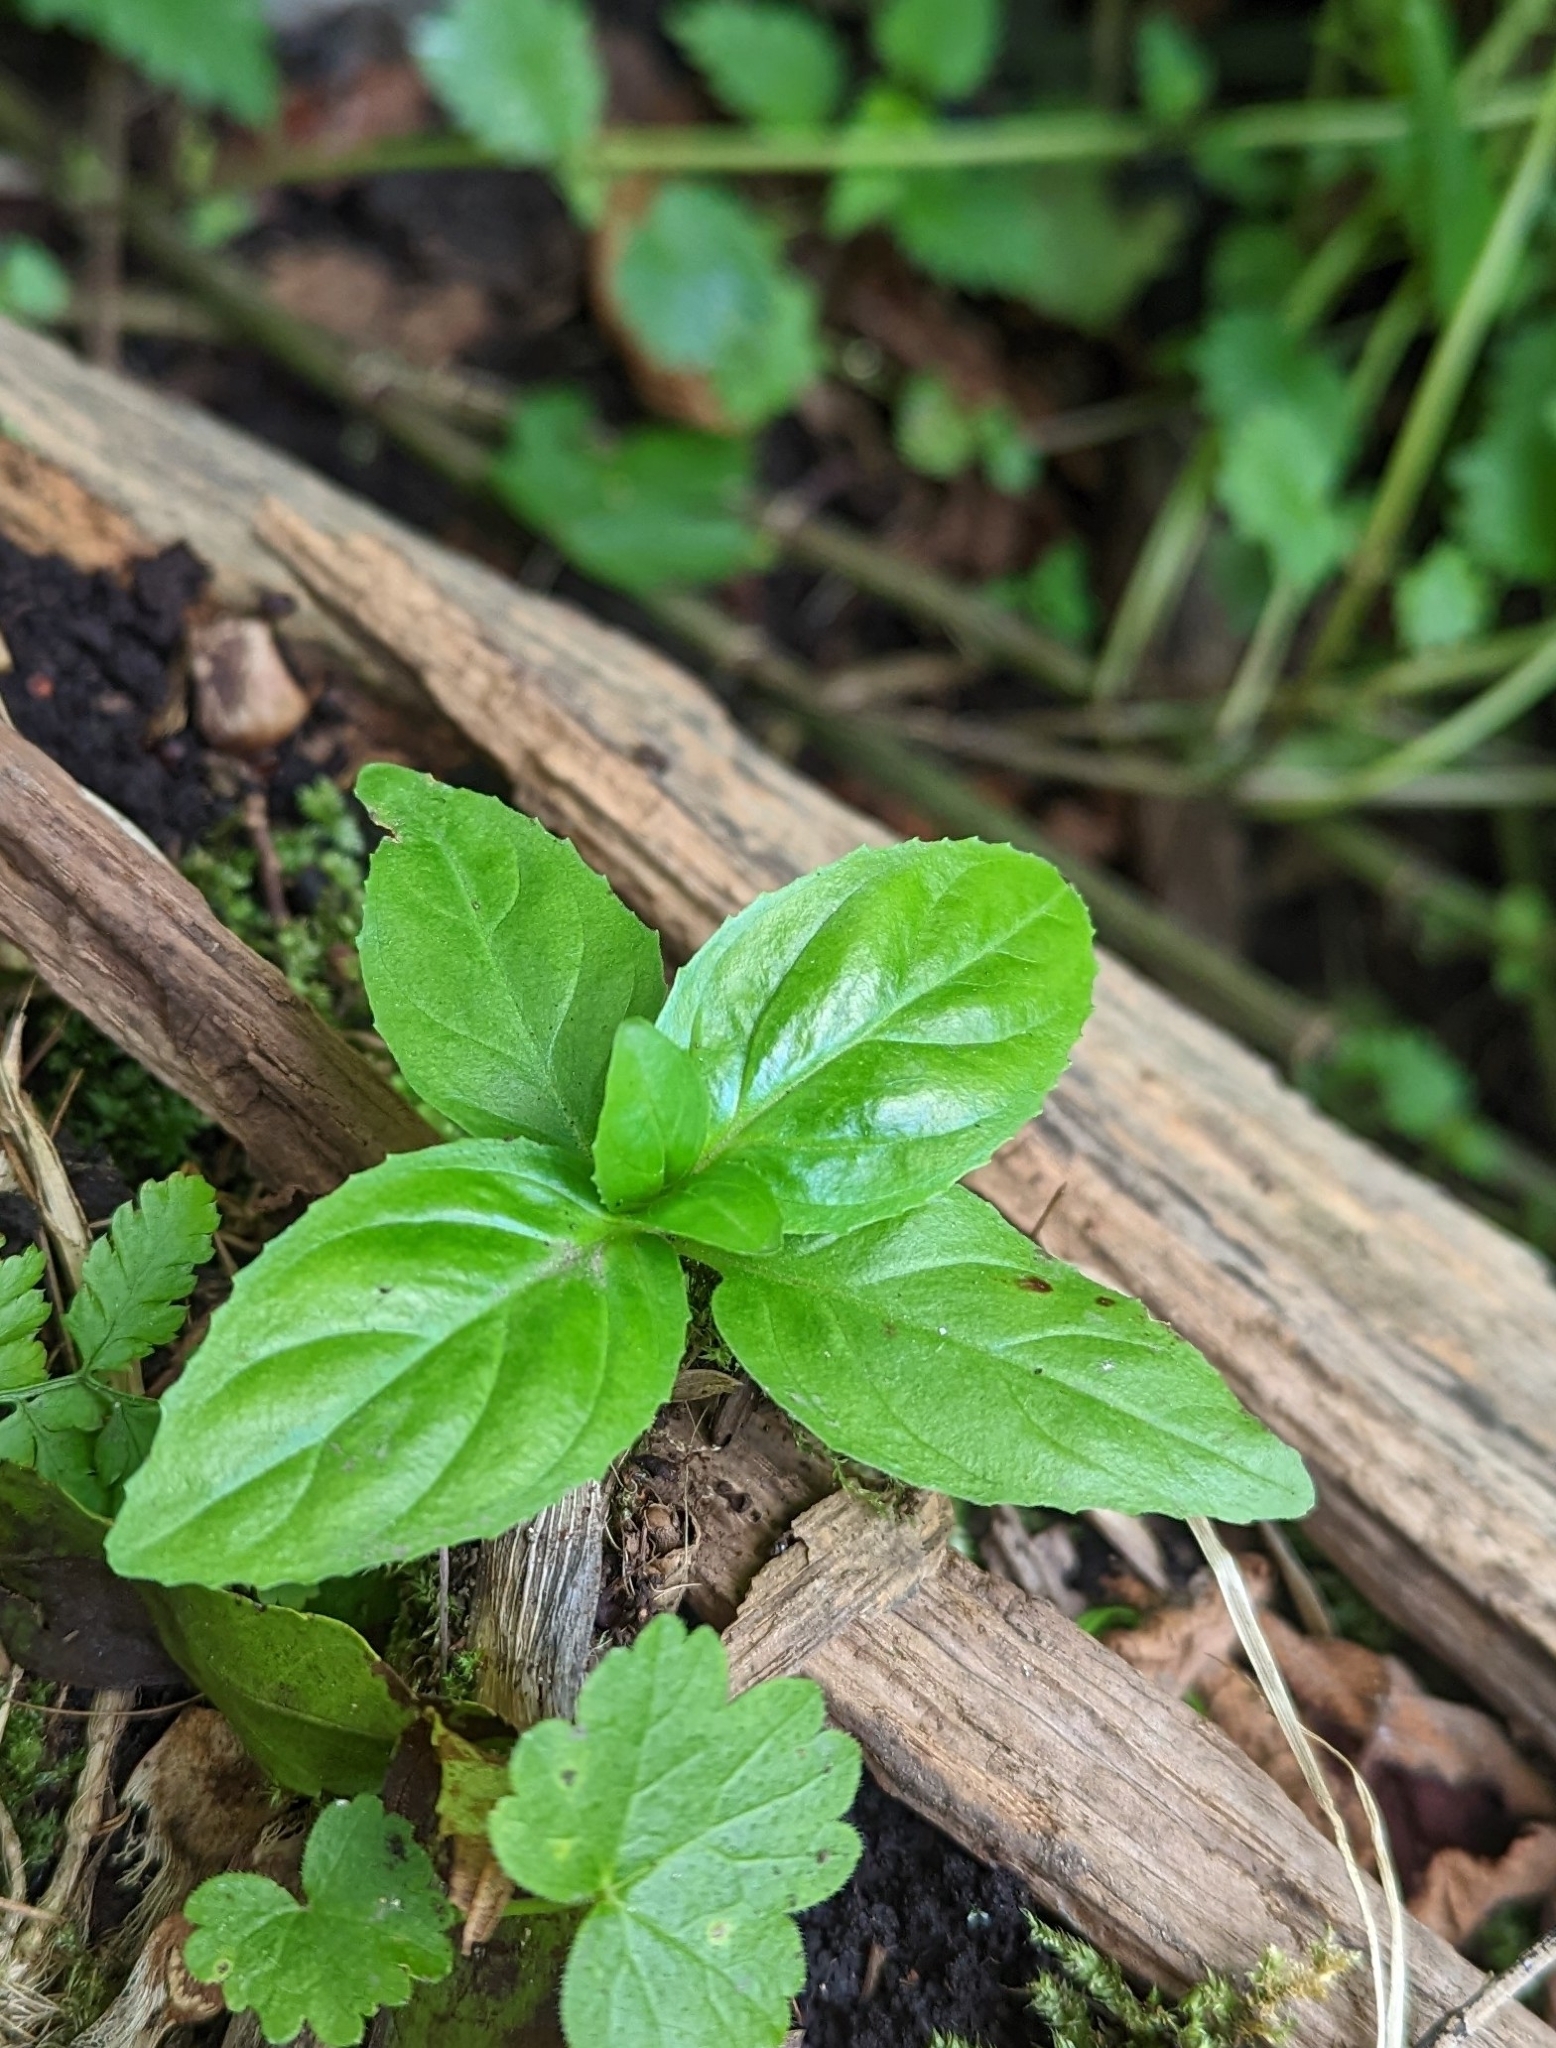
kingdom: Plantae
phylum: Tracheophyta
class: Magnoliopsida
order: Lamiales
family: Lamiaceae
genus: Mentha
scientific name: Mentha aquatica
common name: Water mint
